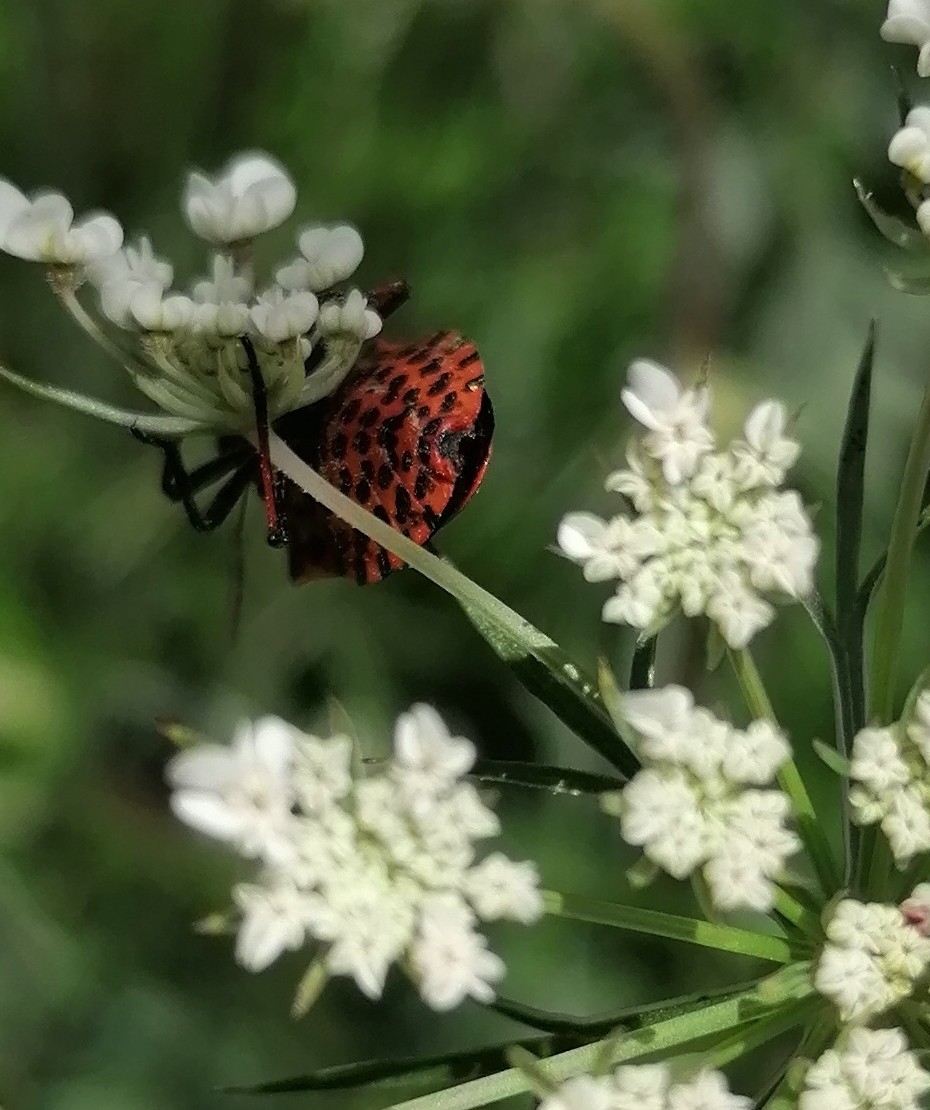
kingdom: Animalia
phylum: Arthropoda
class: Insecta
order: Hemiptera
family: Pentatomidae
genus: Graphosoma
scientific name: Graphosoma italicum
